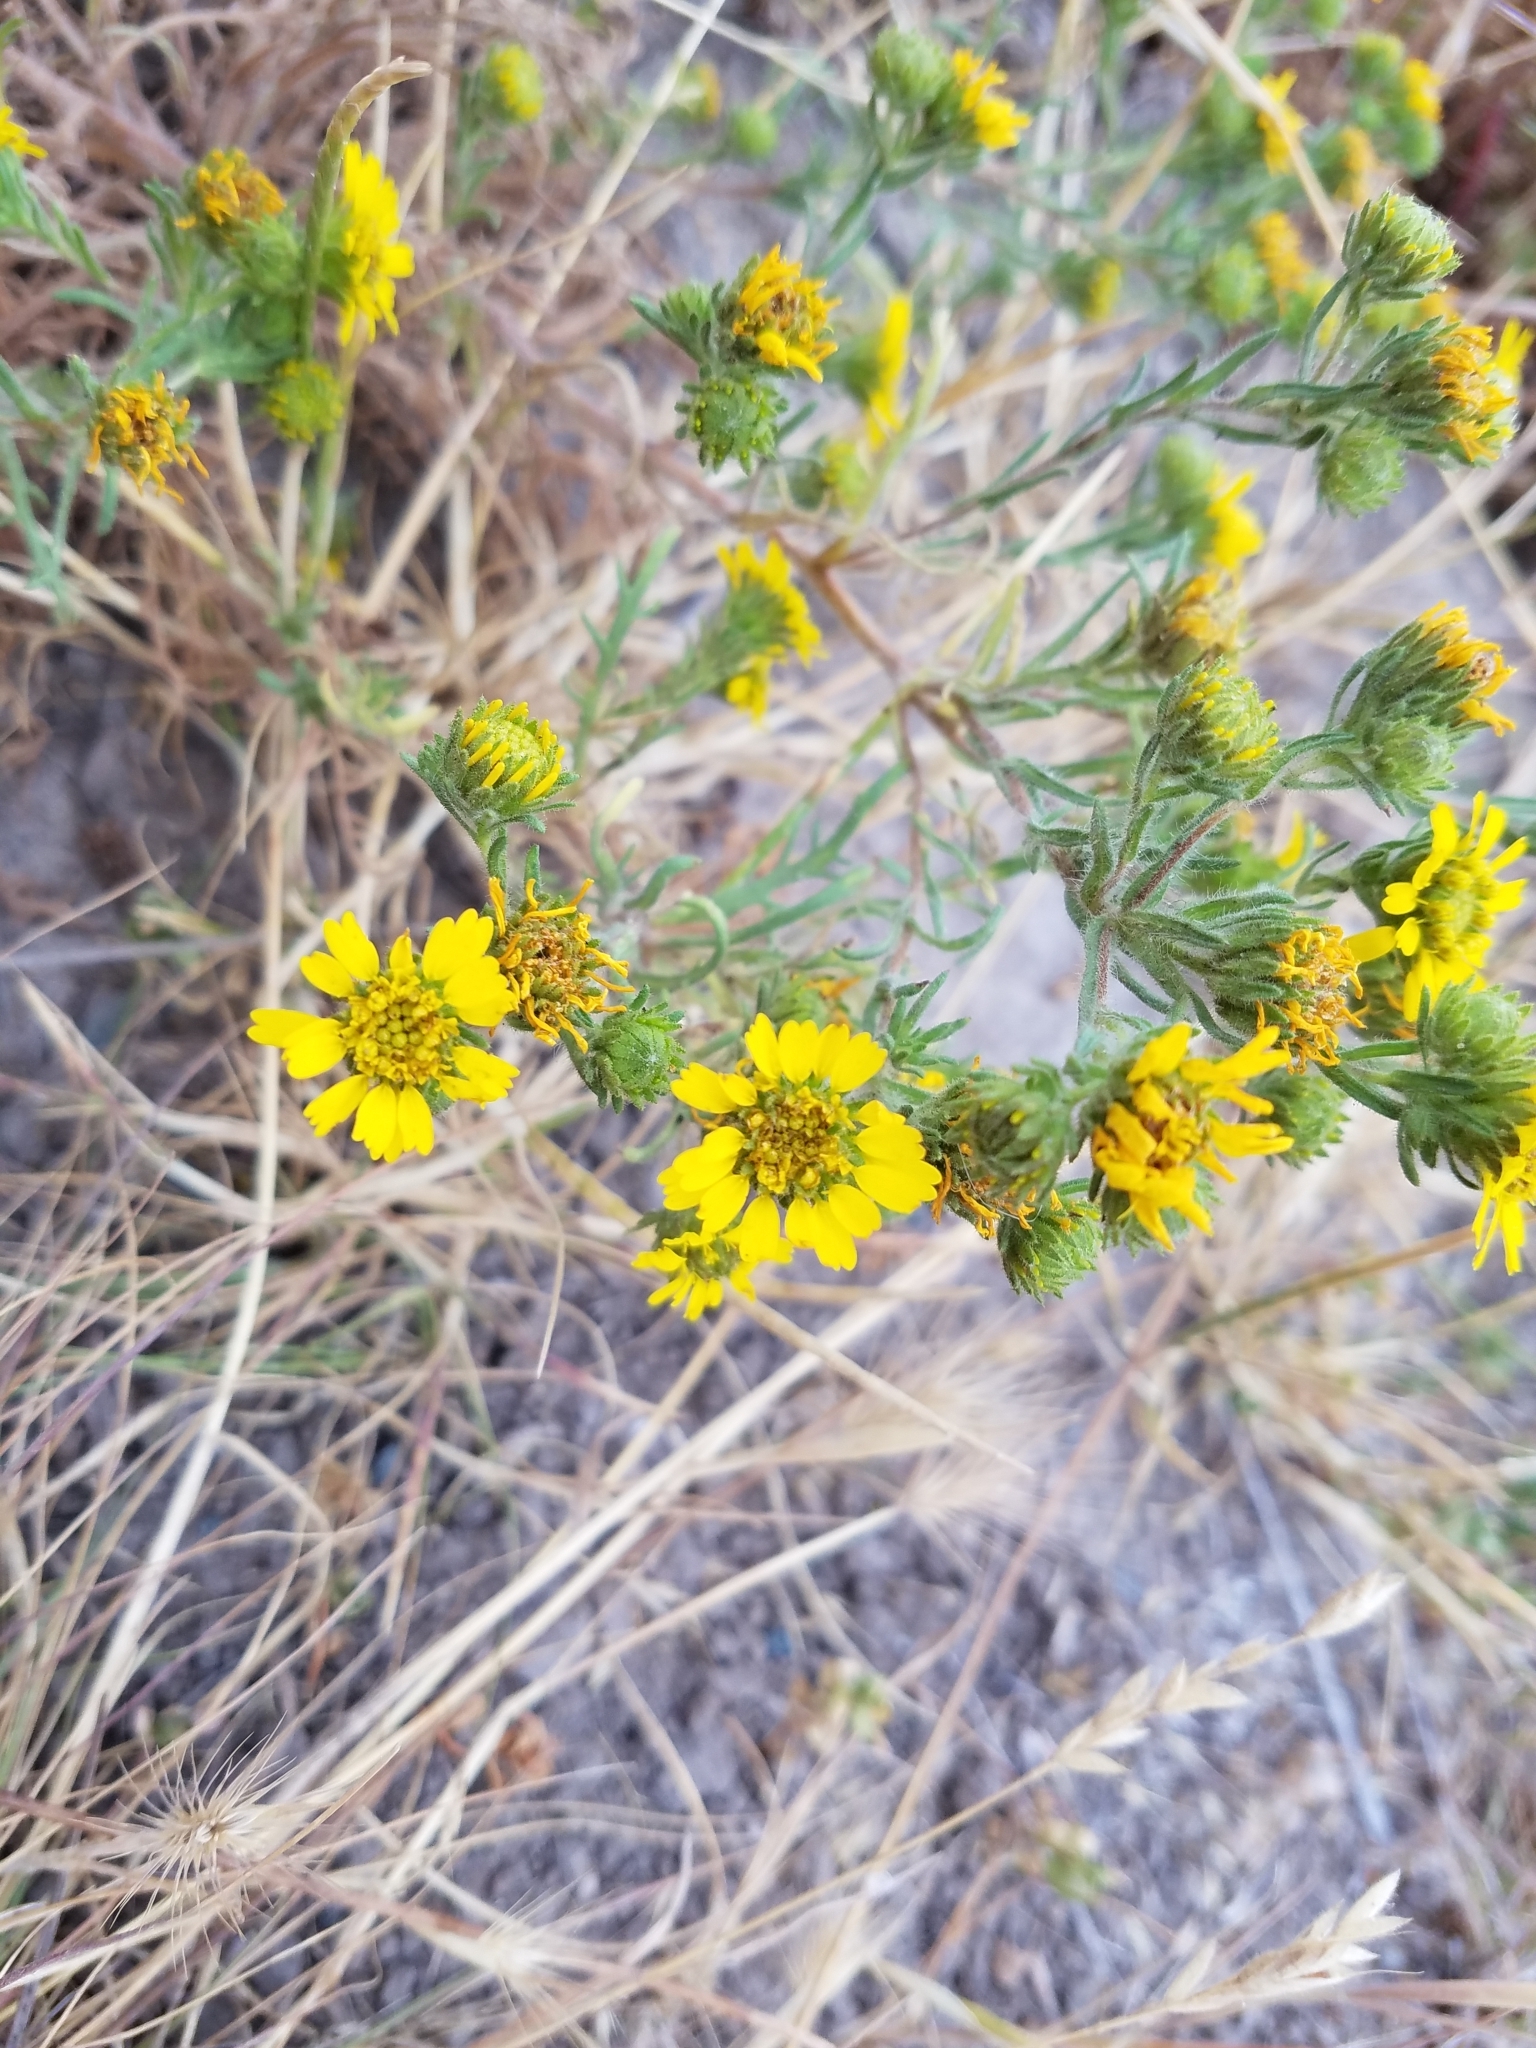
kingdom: Plantae
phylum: Tracheophyta
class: Magnoliopsida
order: Asterales
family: Asteraceae
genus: Deinandra
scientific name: Deinandra corymbosa
